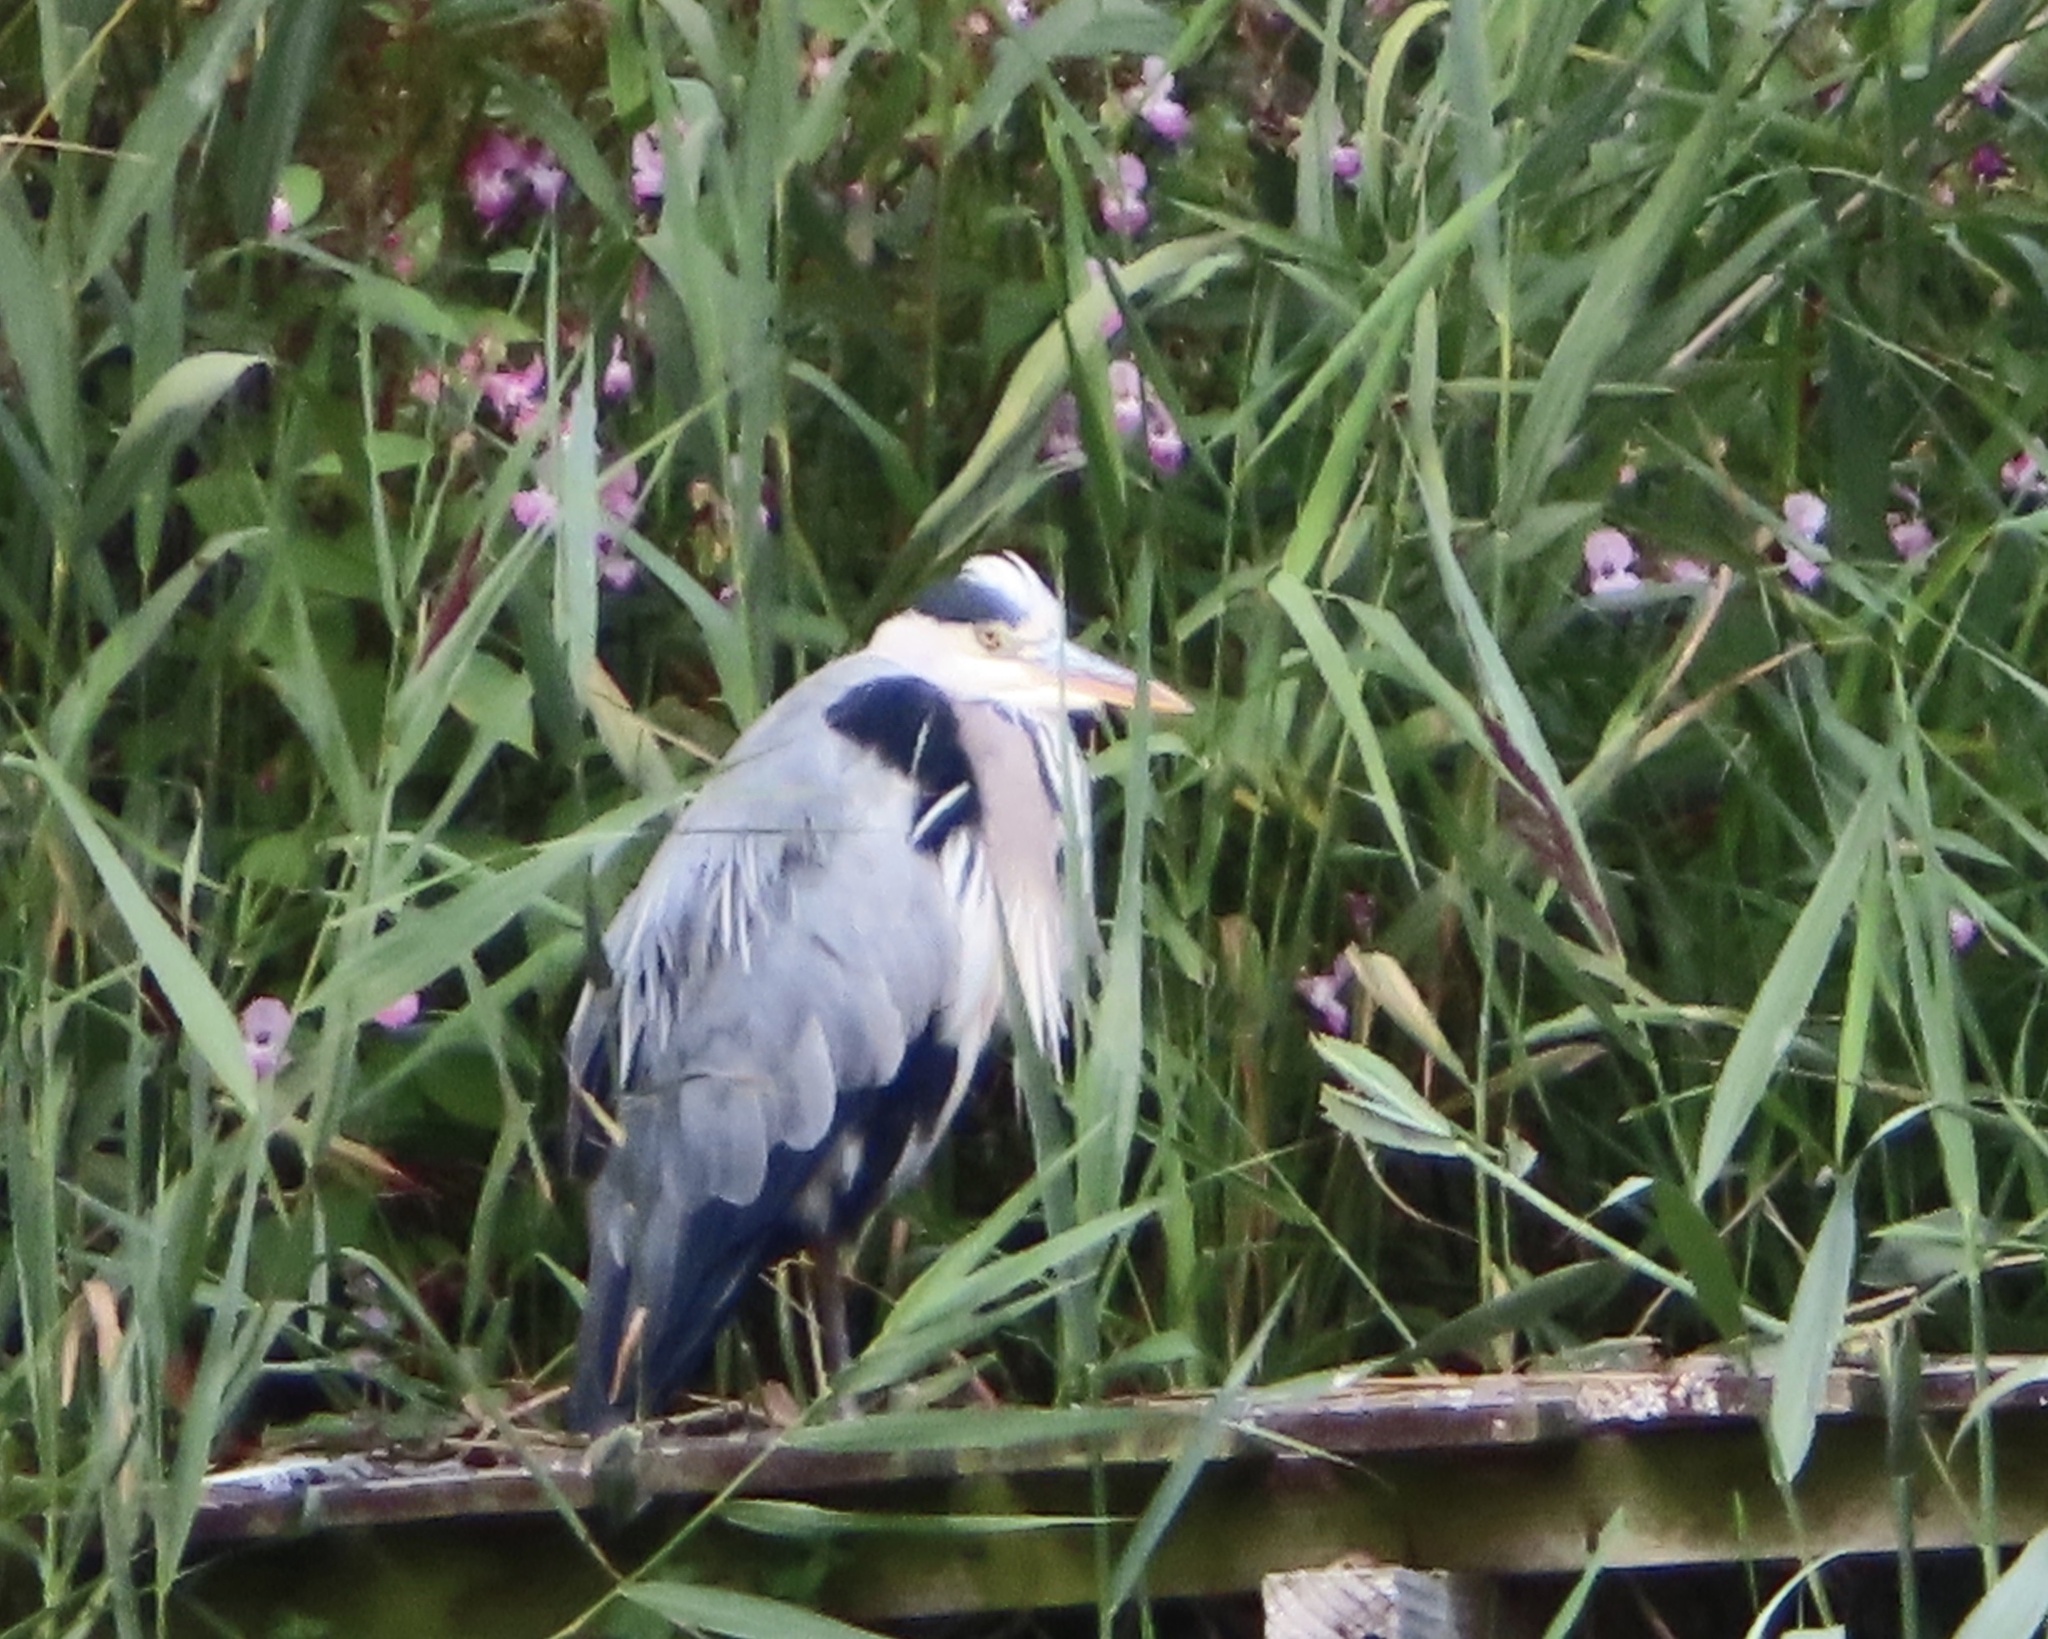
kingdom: Animalia
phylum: Chordata
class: Aves
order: Pelecaniformes
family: Ardeidae
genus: Ardea
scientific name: Ardea cinerea
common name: Grey heron
